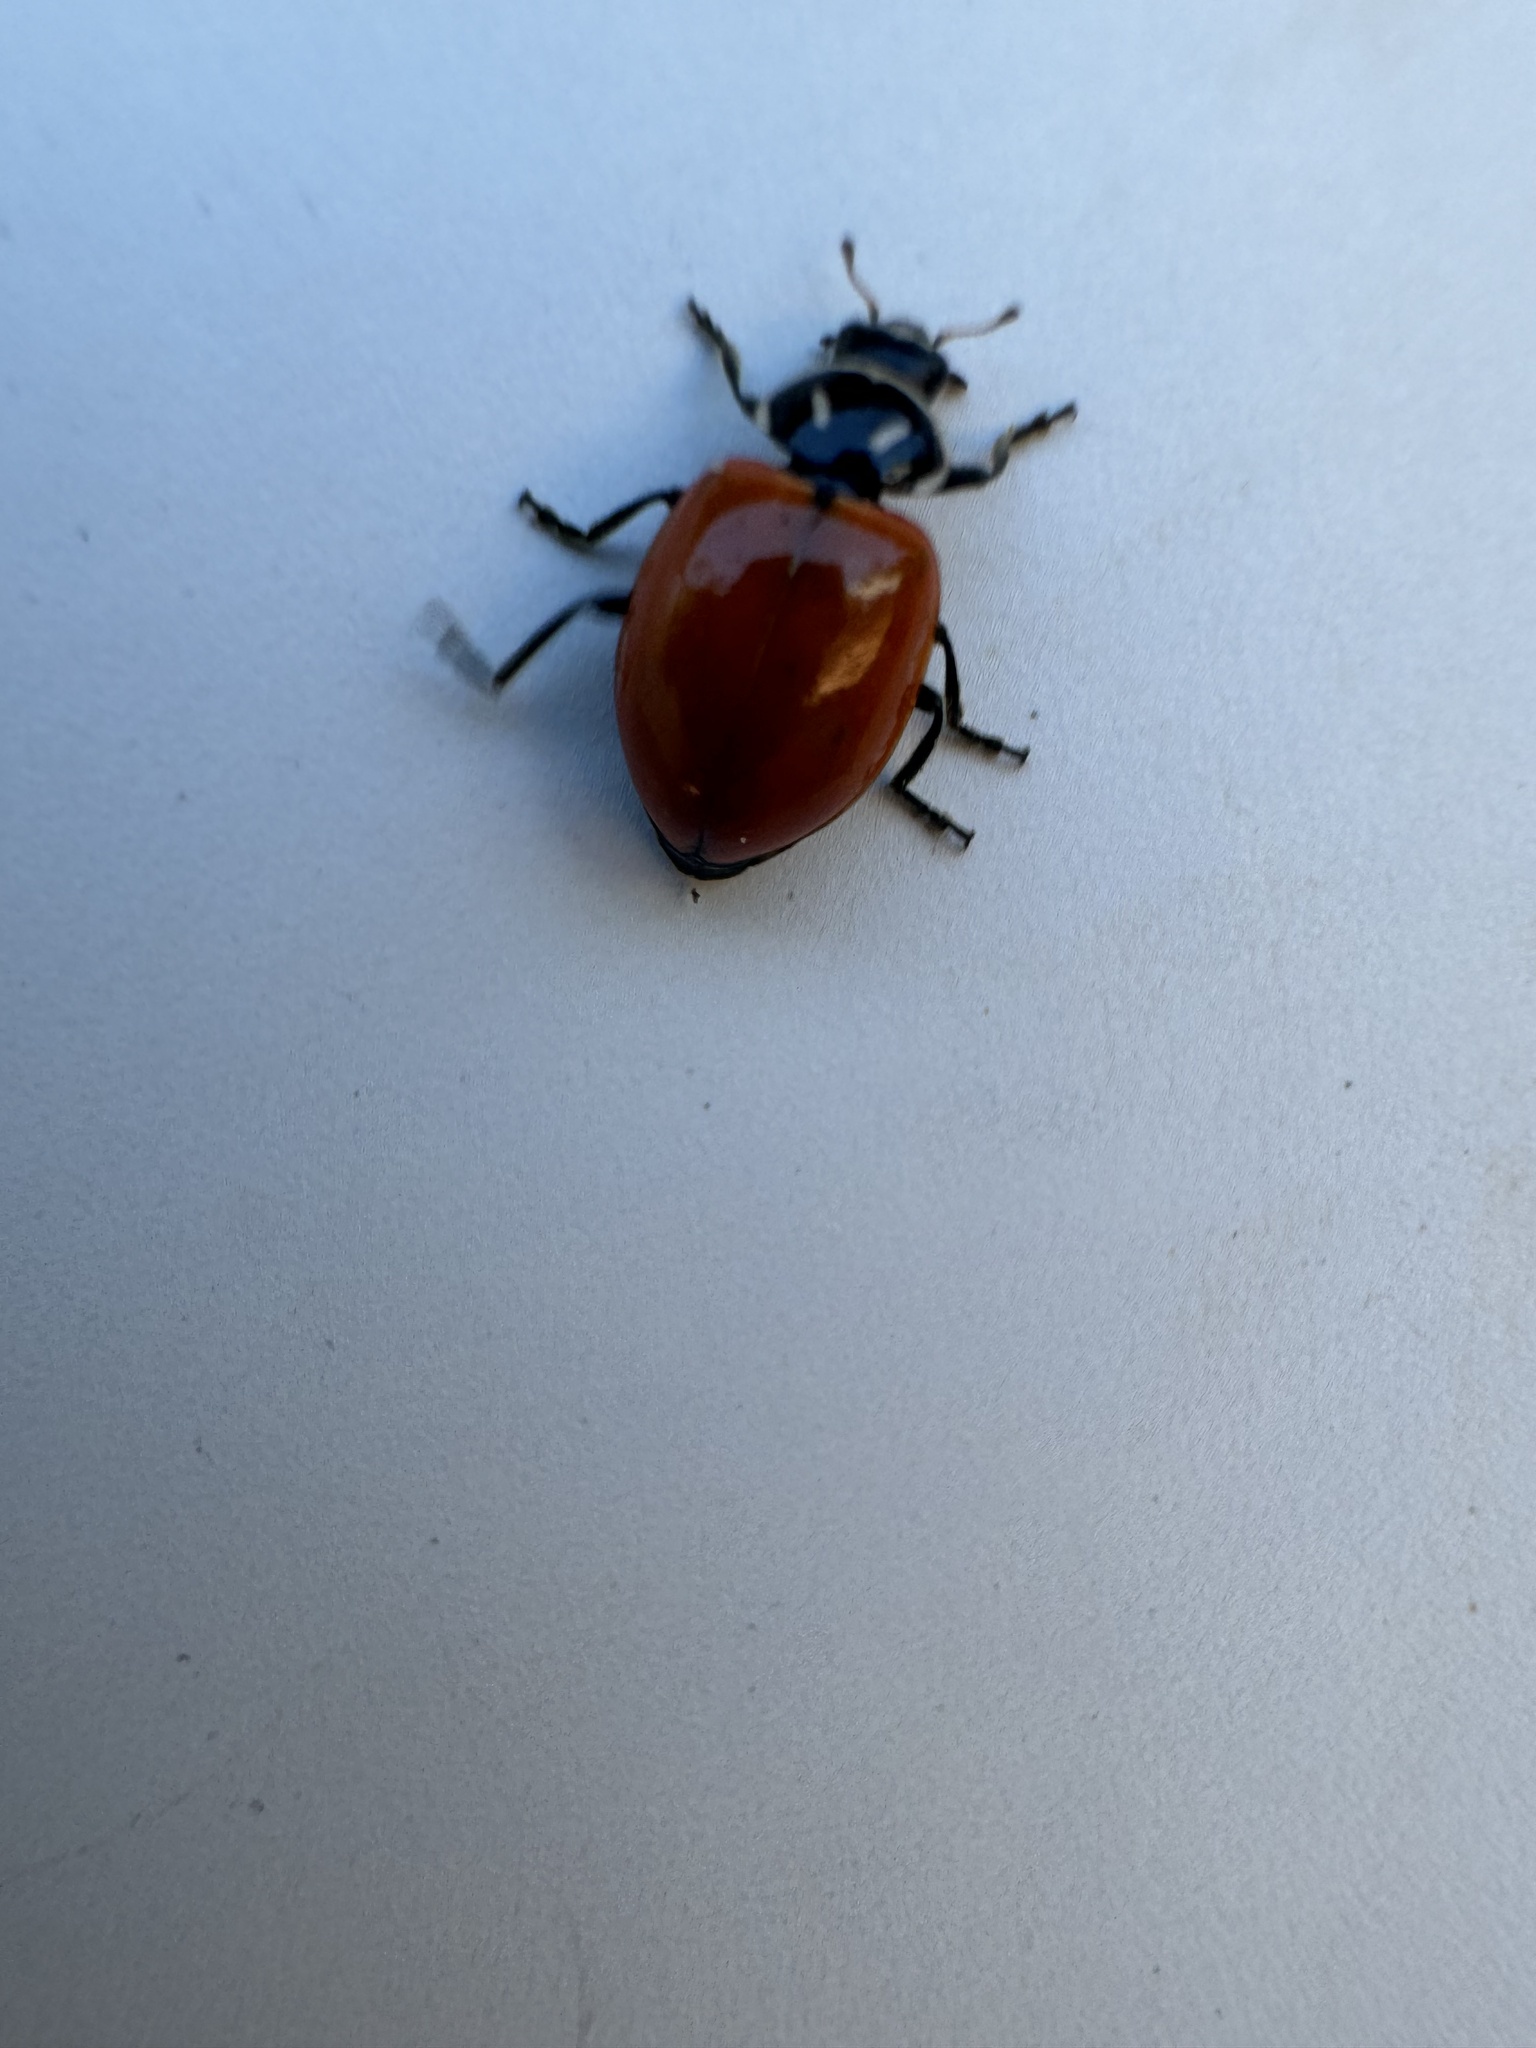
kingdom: Animalia
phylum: Arthropoda
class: Insecta
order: Coleoptera
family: Coccinellidae
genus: Hippodamia
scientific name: Hippodamia convergens
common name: Convergent lady beetle
